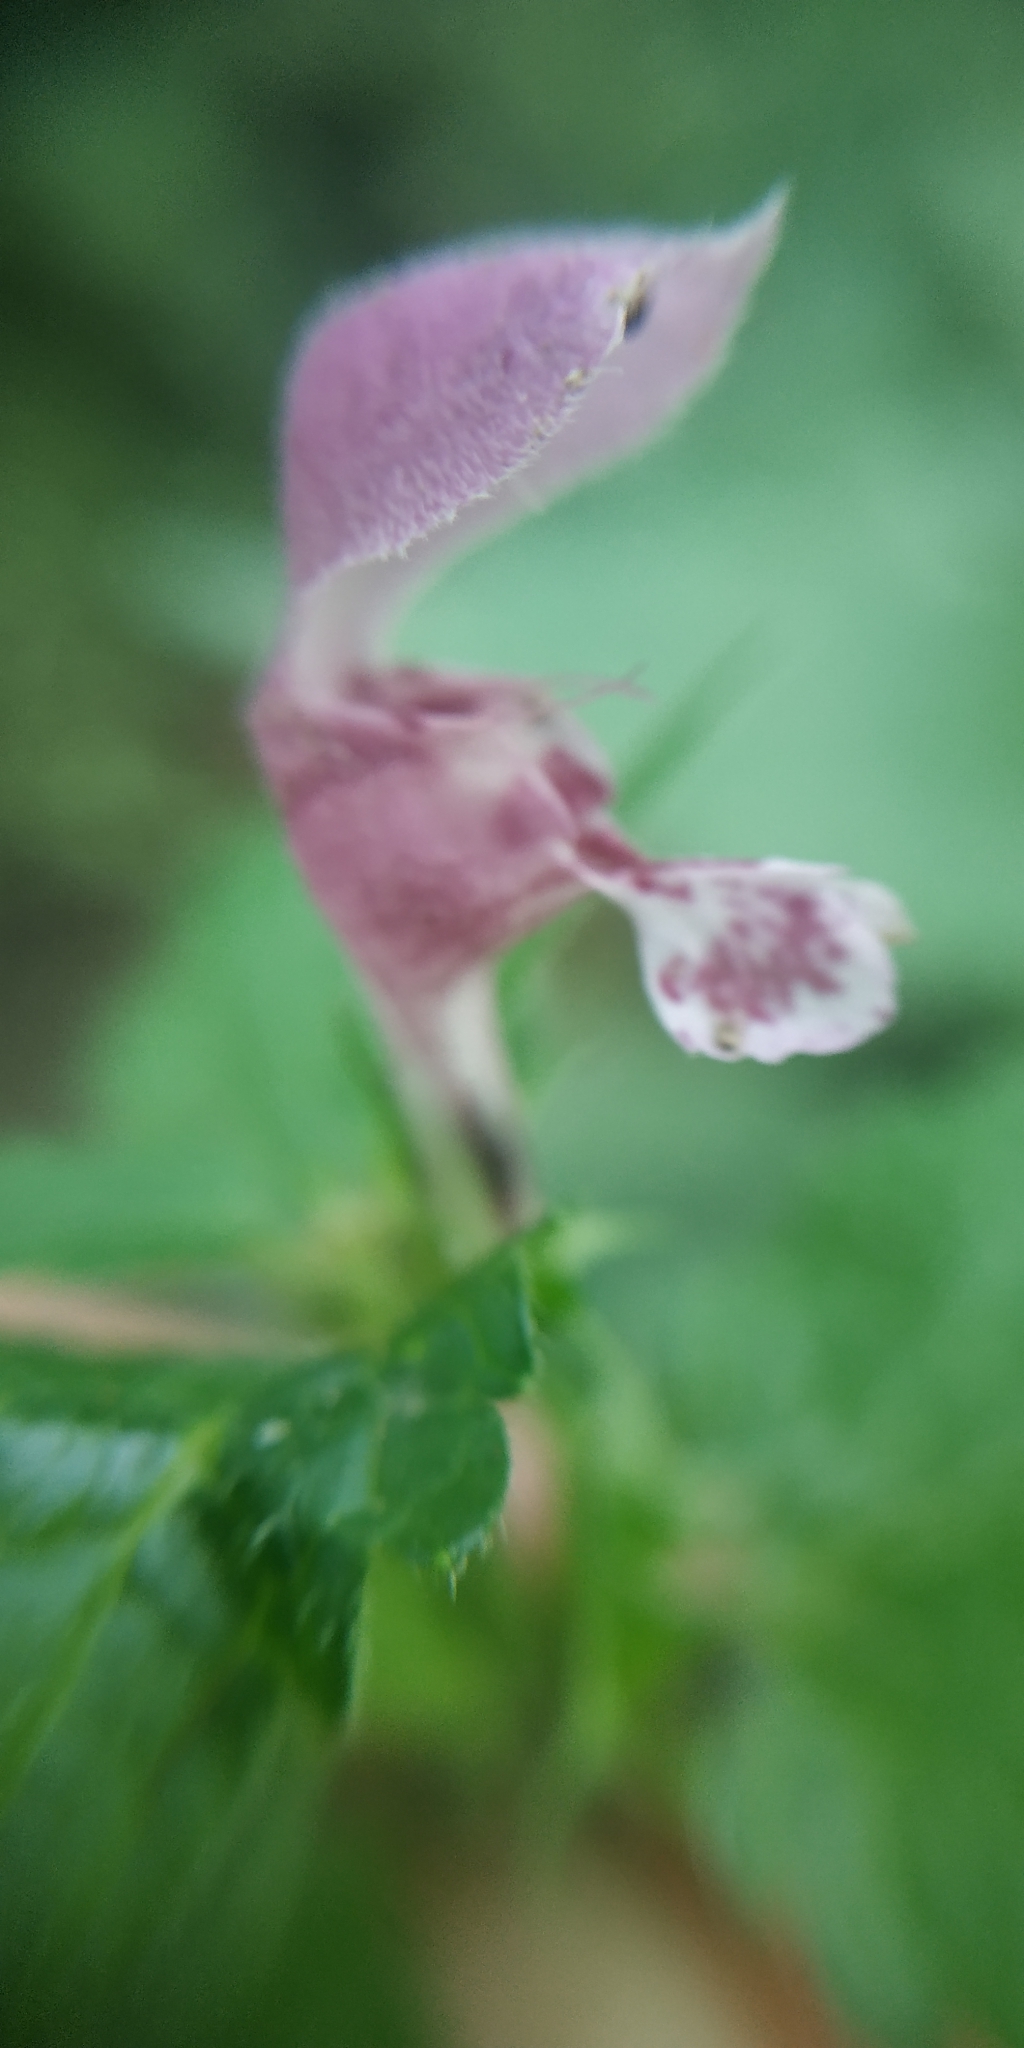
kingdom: Plantae
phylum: Tracheophyta
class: Magnoliopsida
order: Lamiales
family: Lamiaceae
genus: Lamium
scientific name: Lamium maculatum
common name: Spotted dead-nettle
